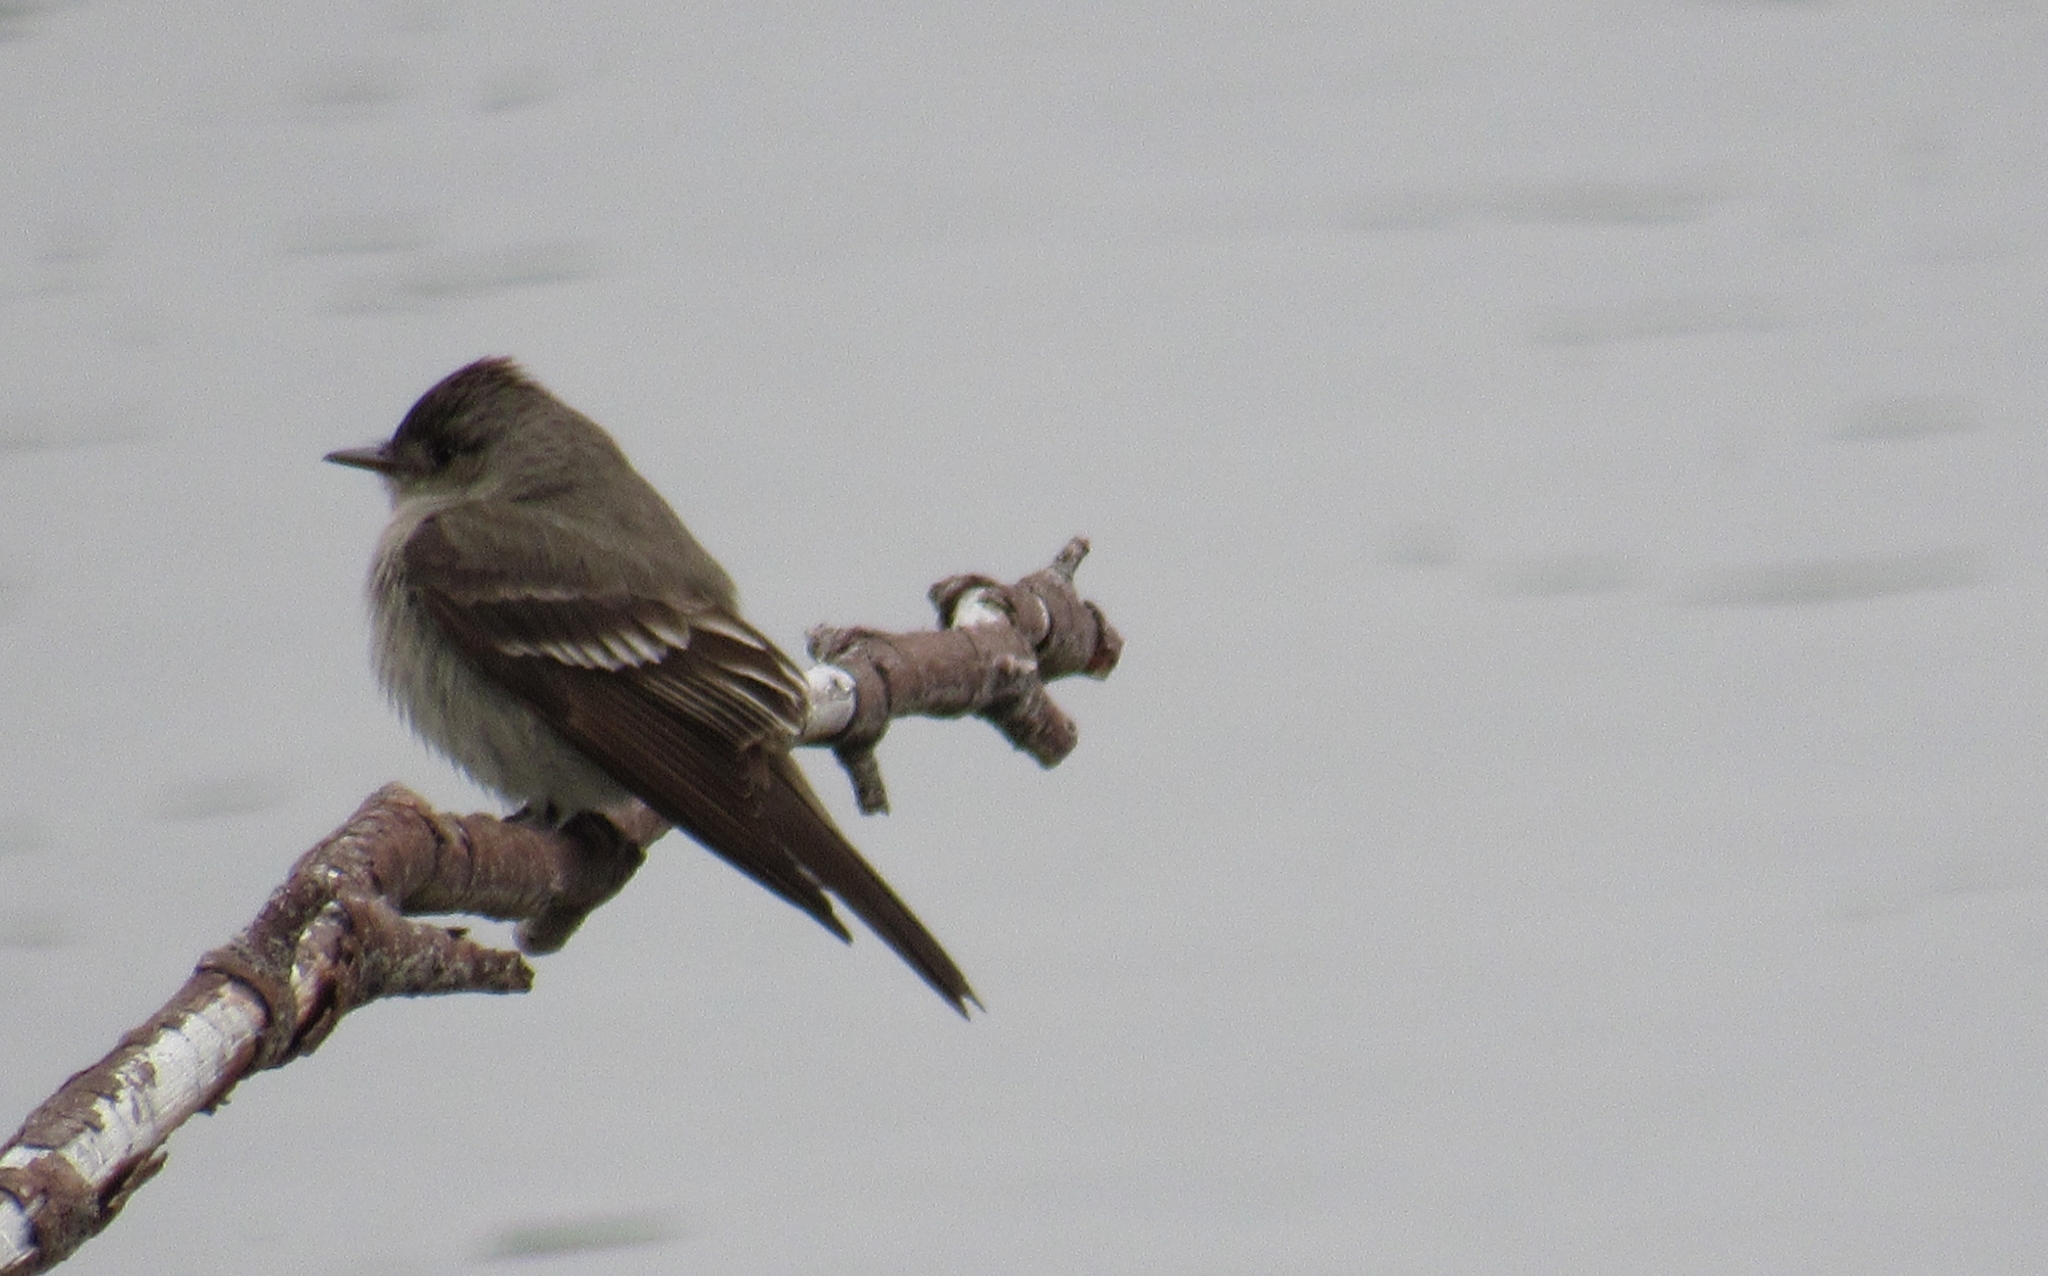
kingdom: Animalia
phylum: Chordata
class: Aves
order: Passeriformes
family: Tyrannidae
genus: Contopus
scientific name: Contopus sordidulus
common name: Western wood-pewee
